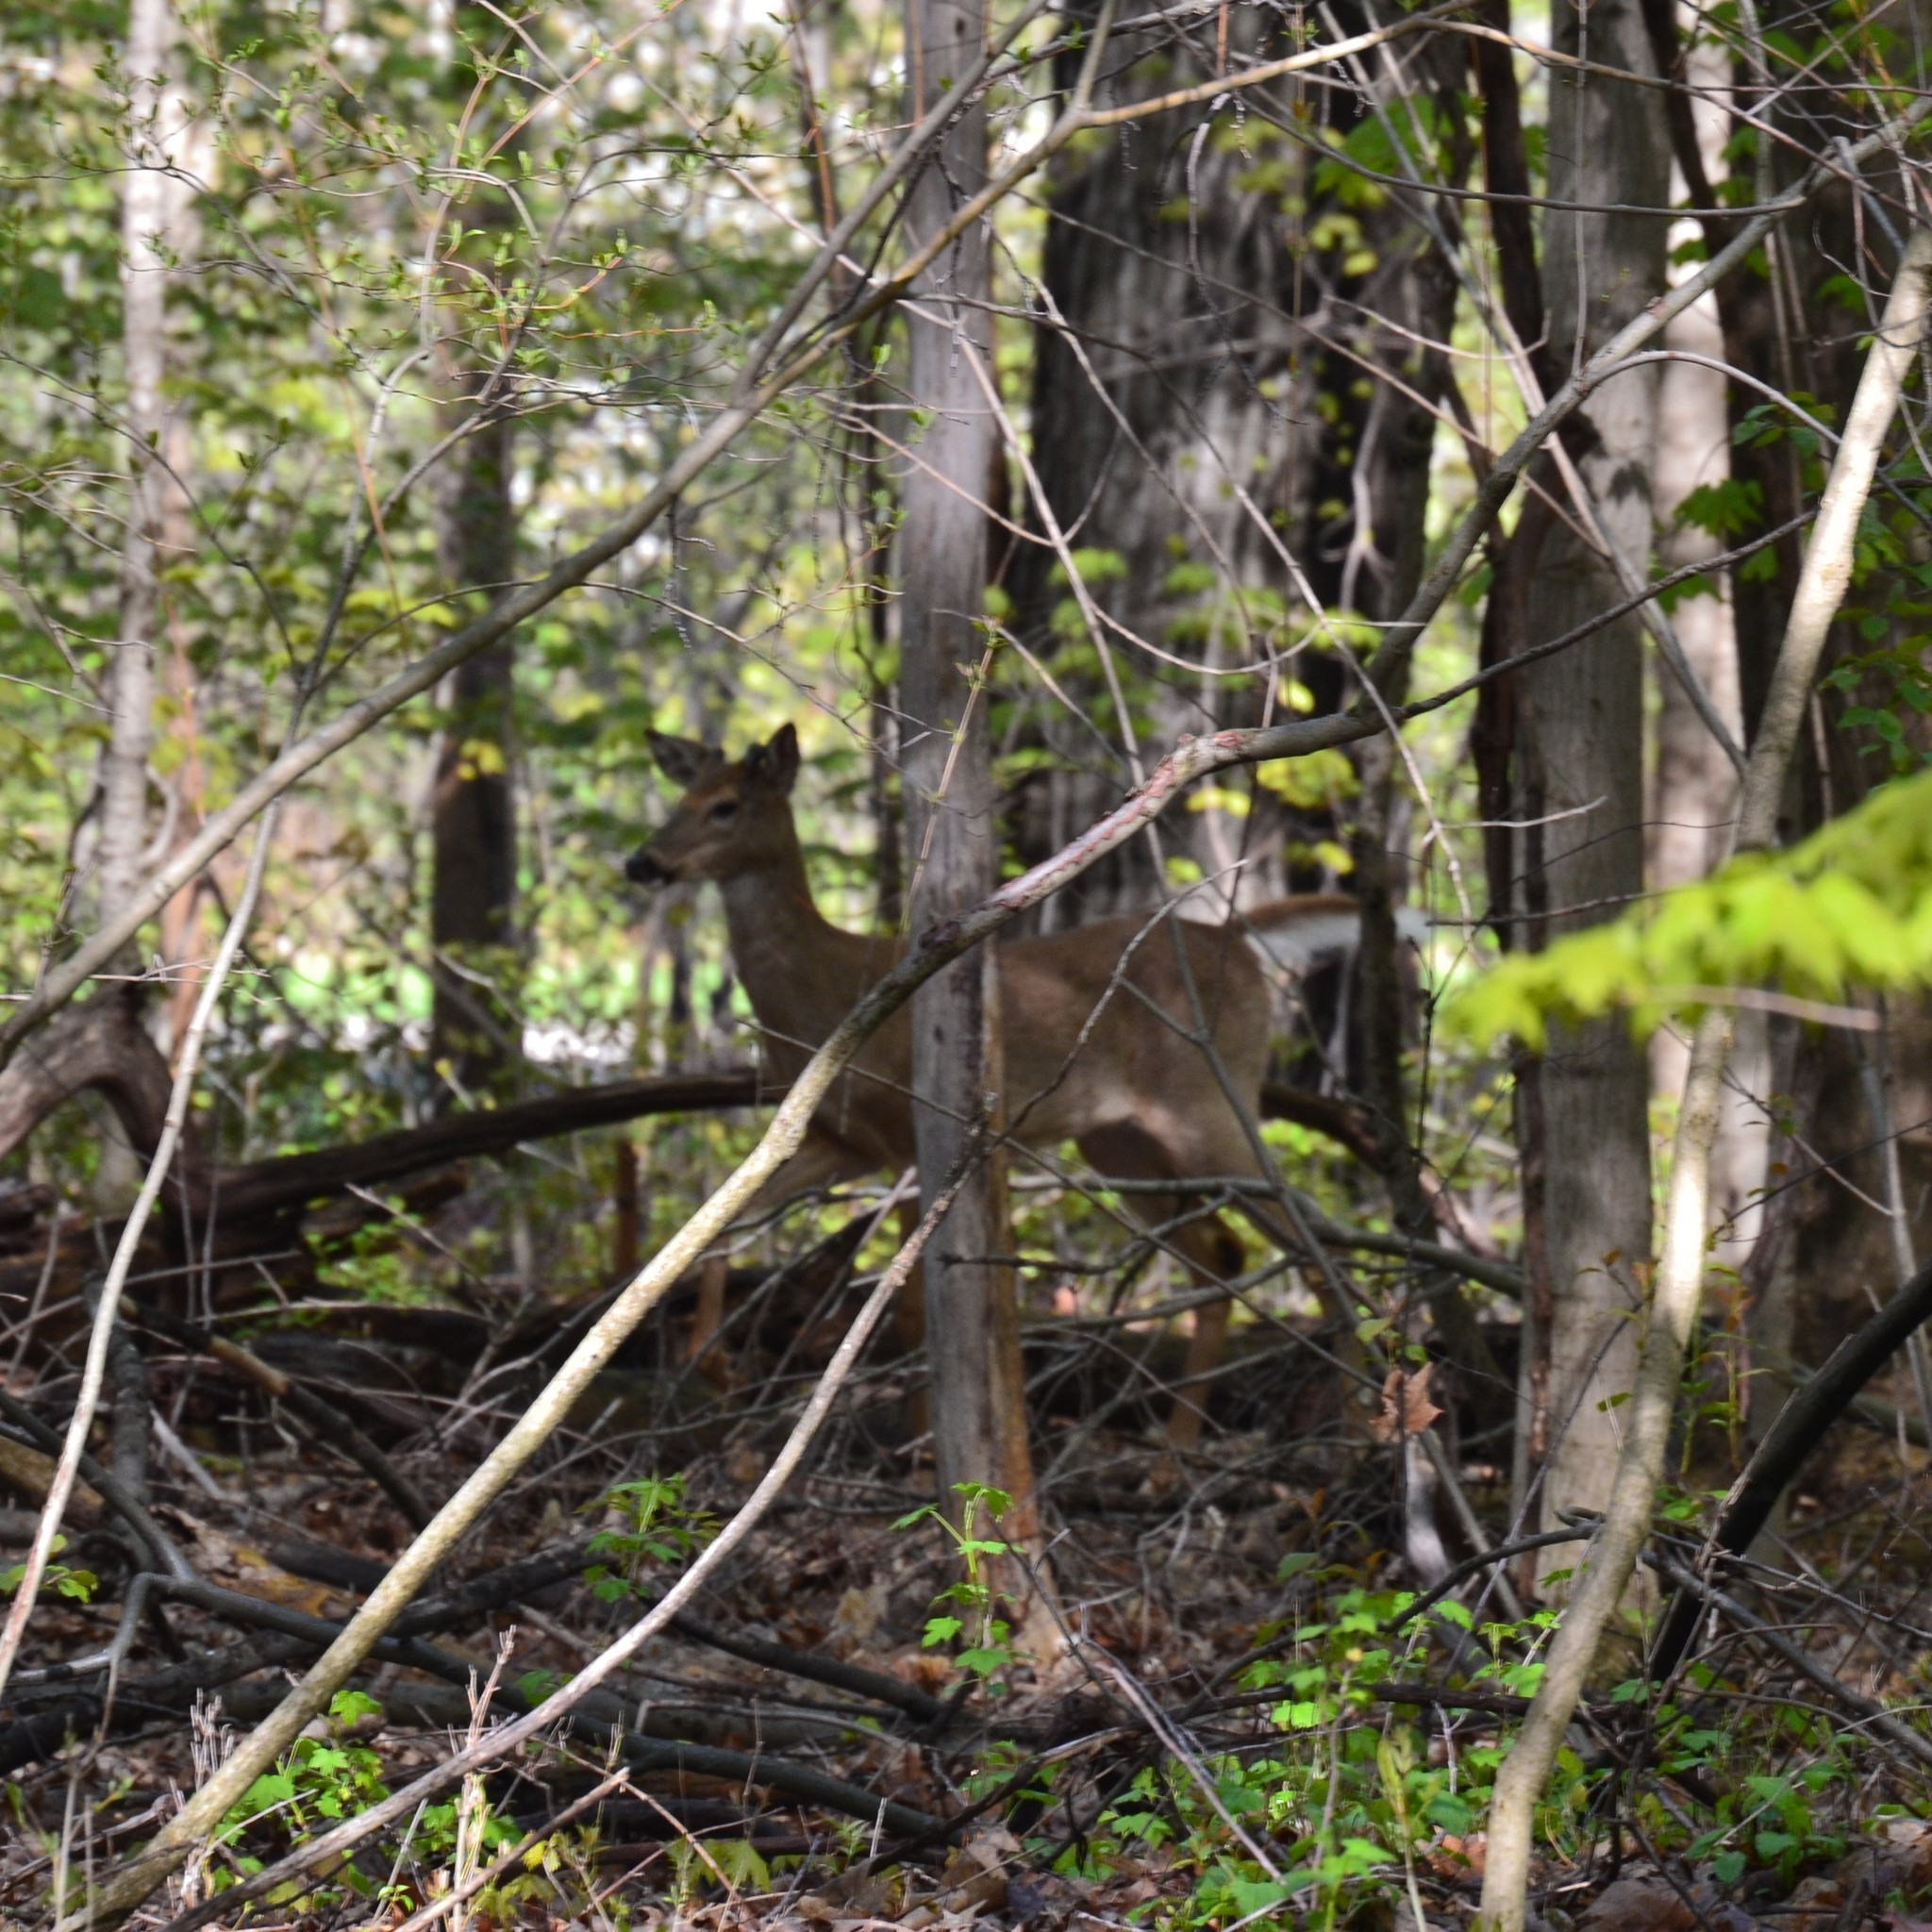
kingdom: Animalia
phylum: Chordata
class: Mammalia
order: Artiodactyla
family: Cervidae
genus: Odocoileus
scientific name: Odocoileus virginianus
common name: White-tailed deer
